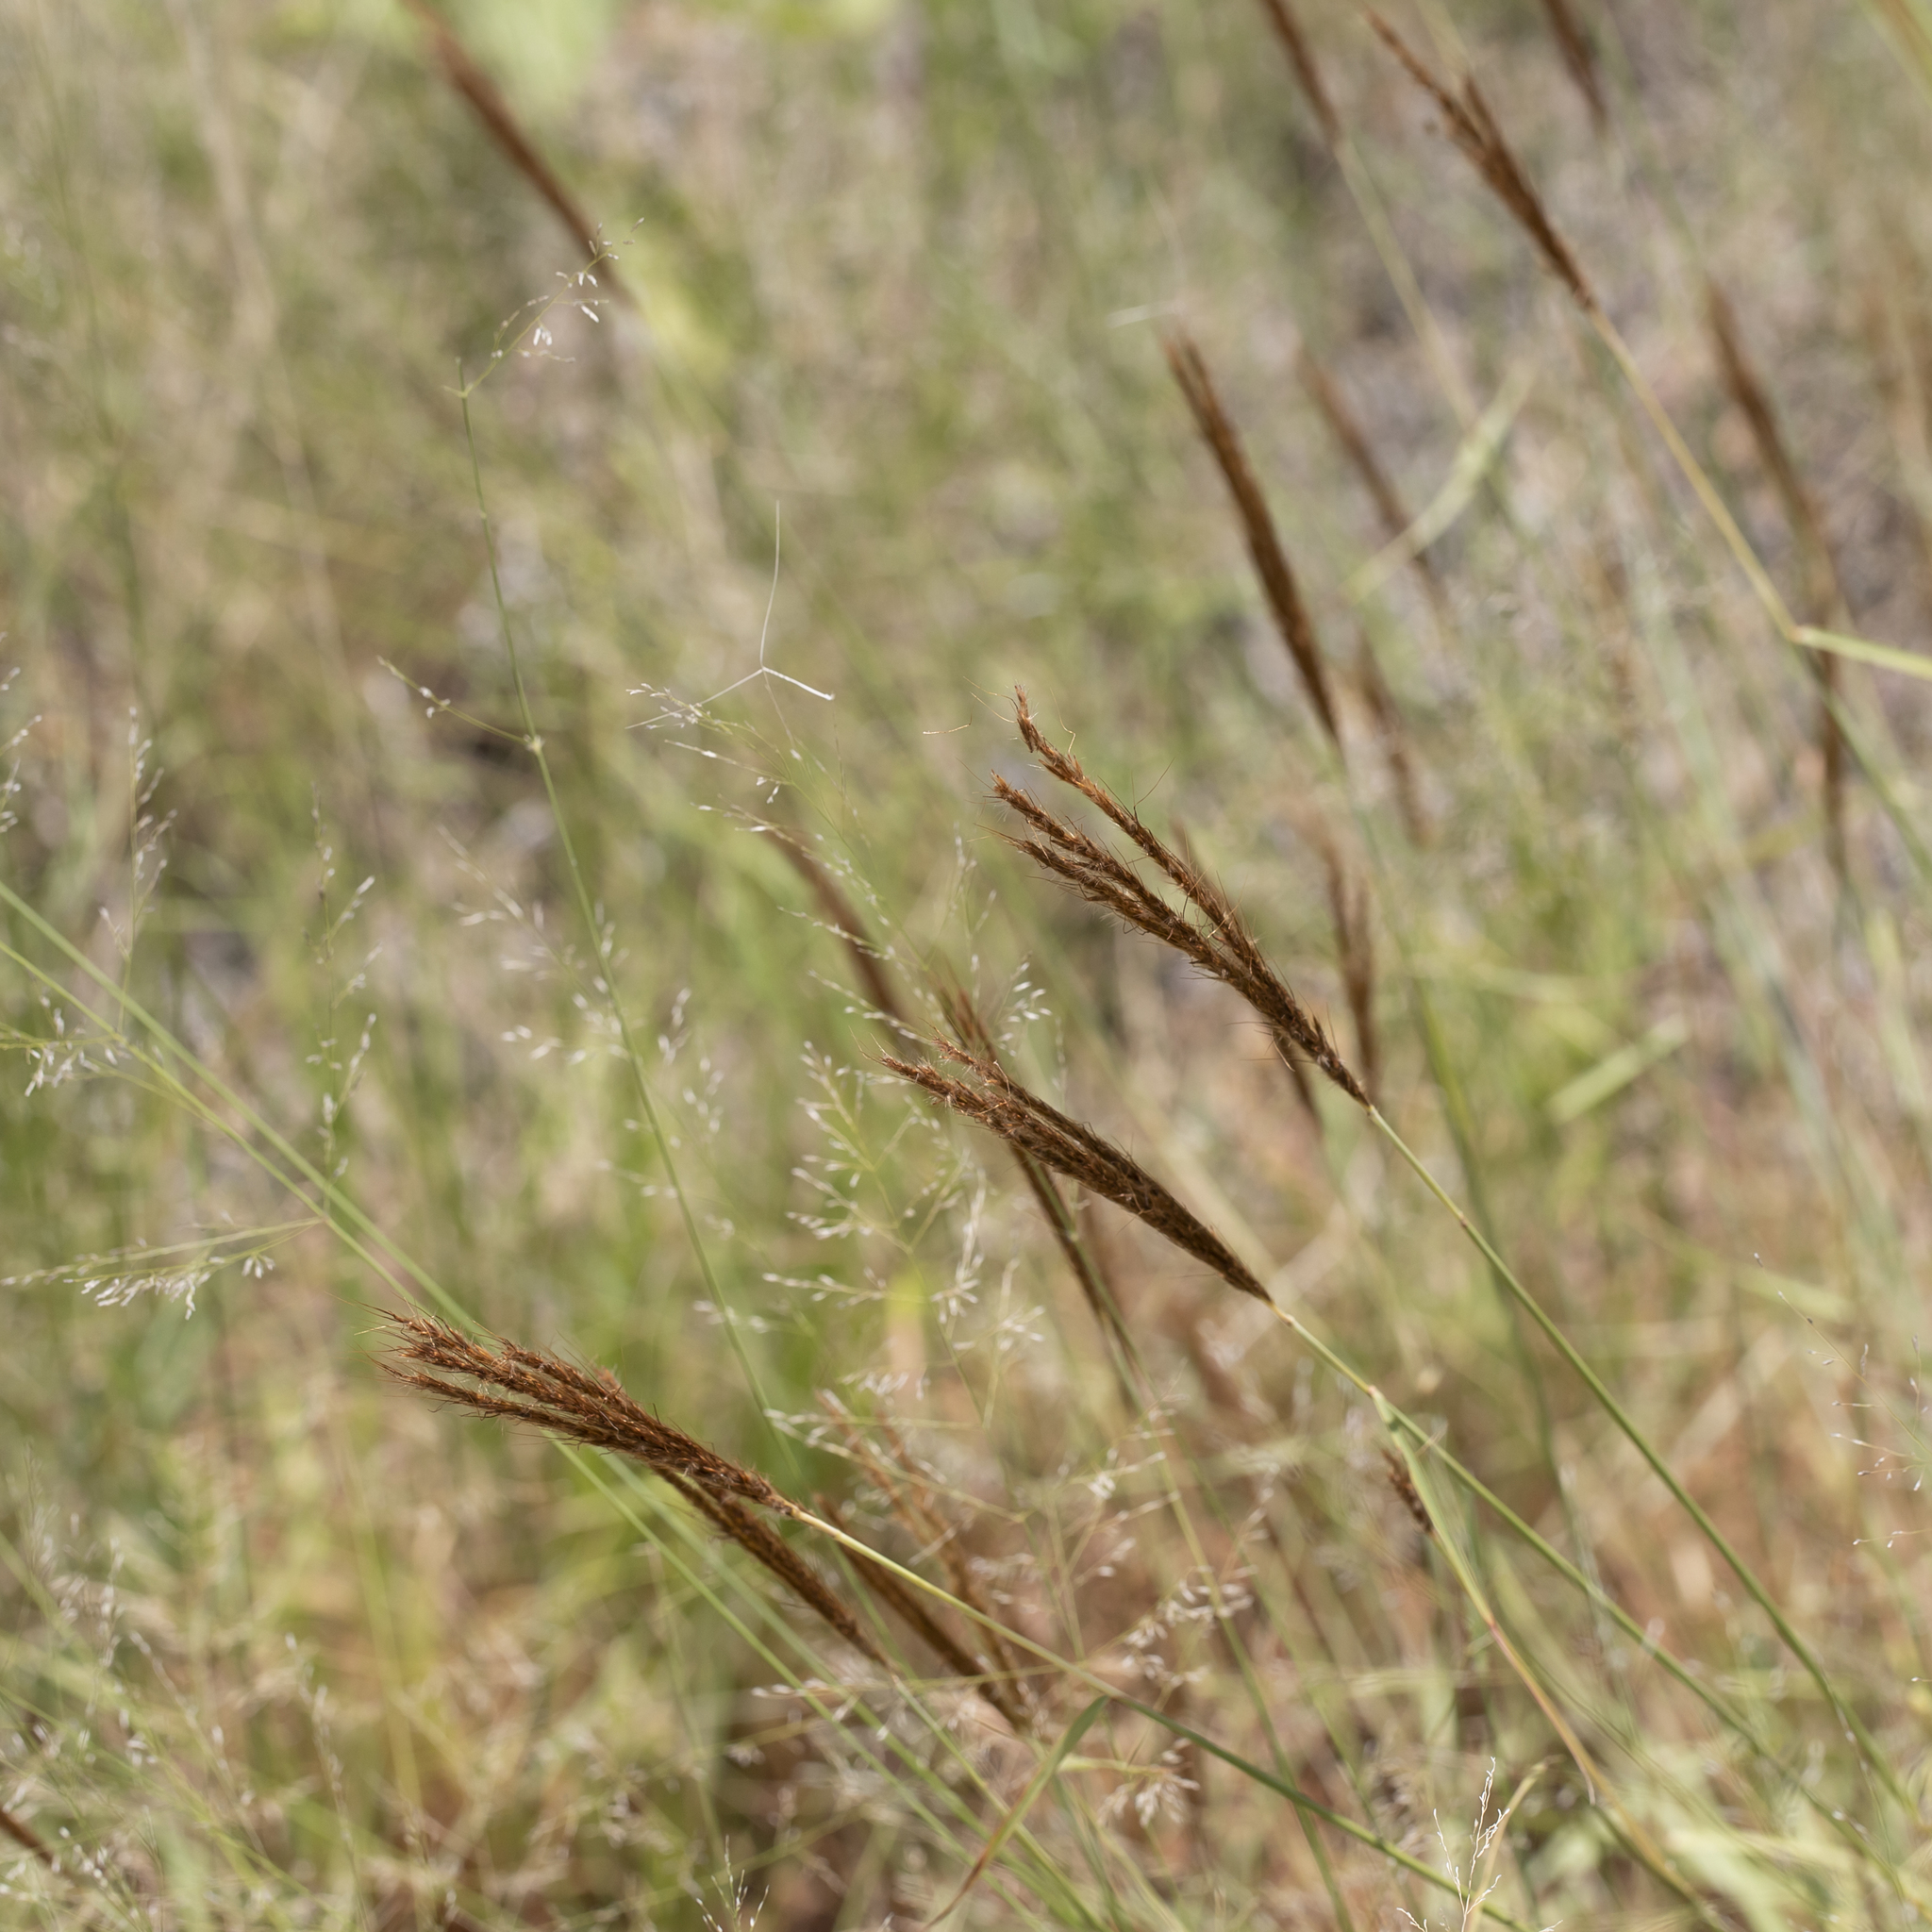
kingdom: Plantae
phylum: Tracheophyta
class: Liliopsida
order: Poales
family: Poaceae
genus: Eulalia
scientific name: Eulalia aurea
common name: Silky browntop
